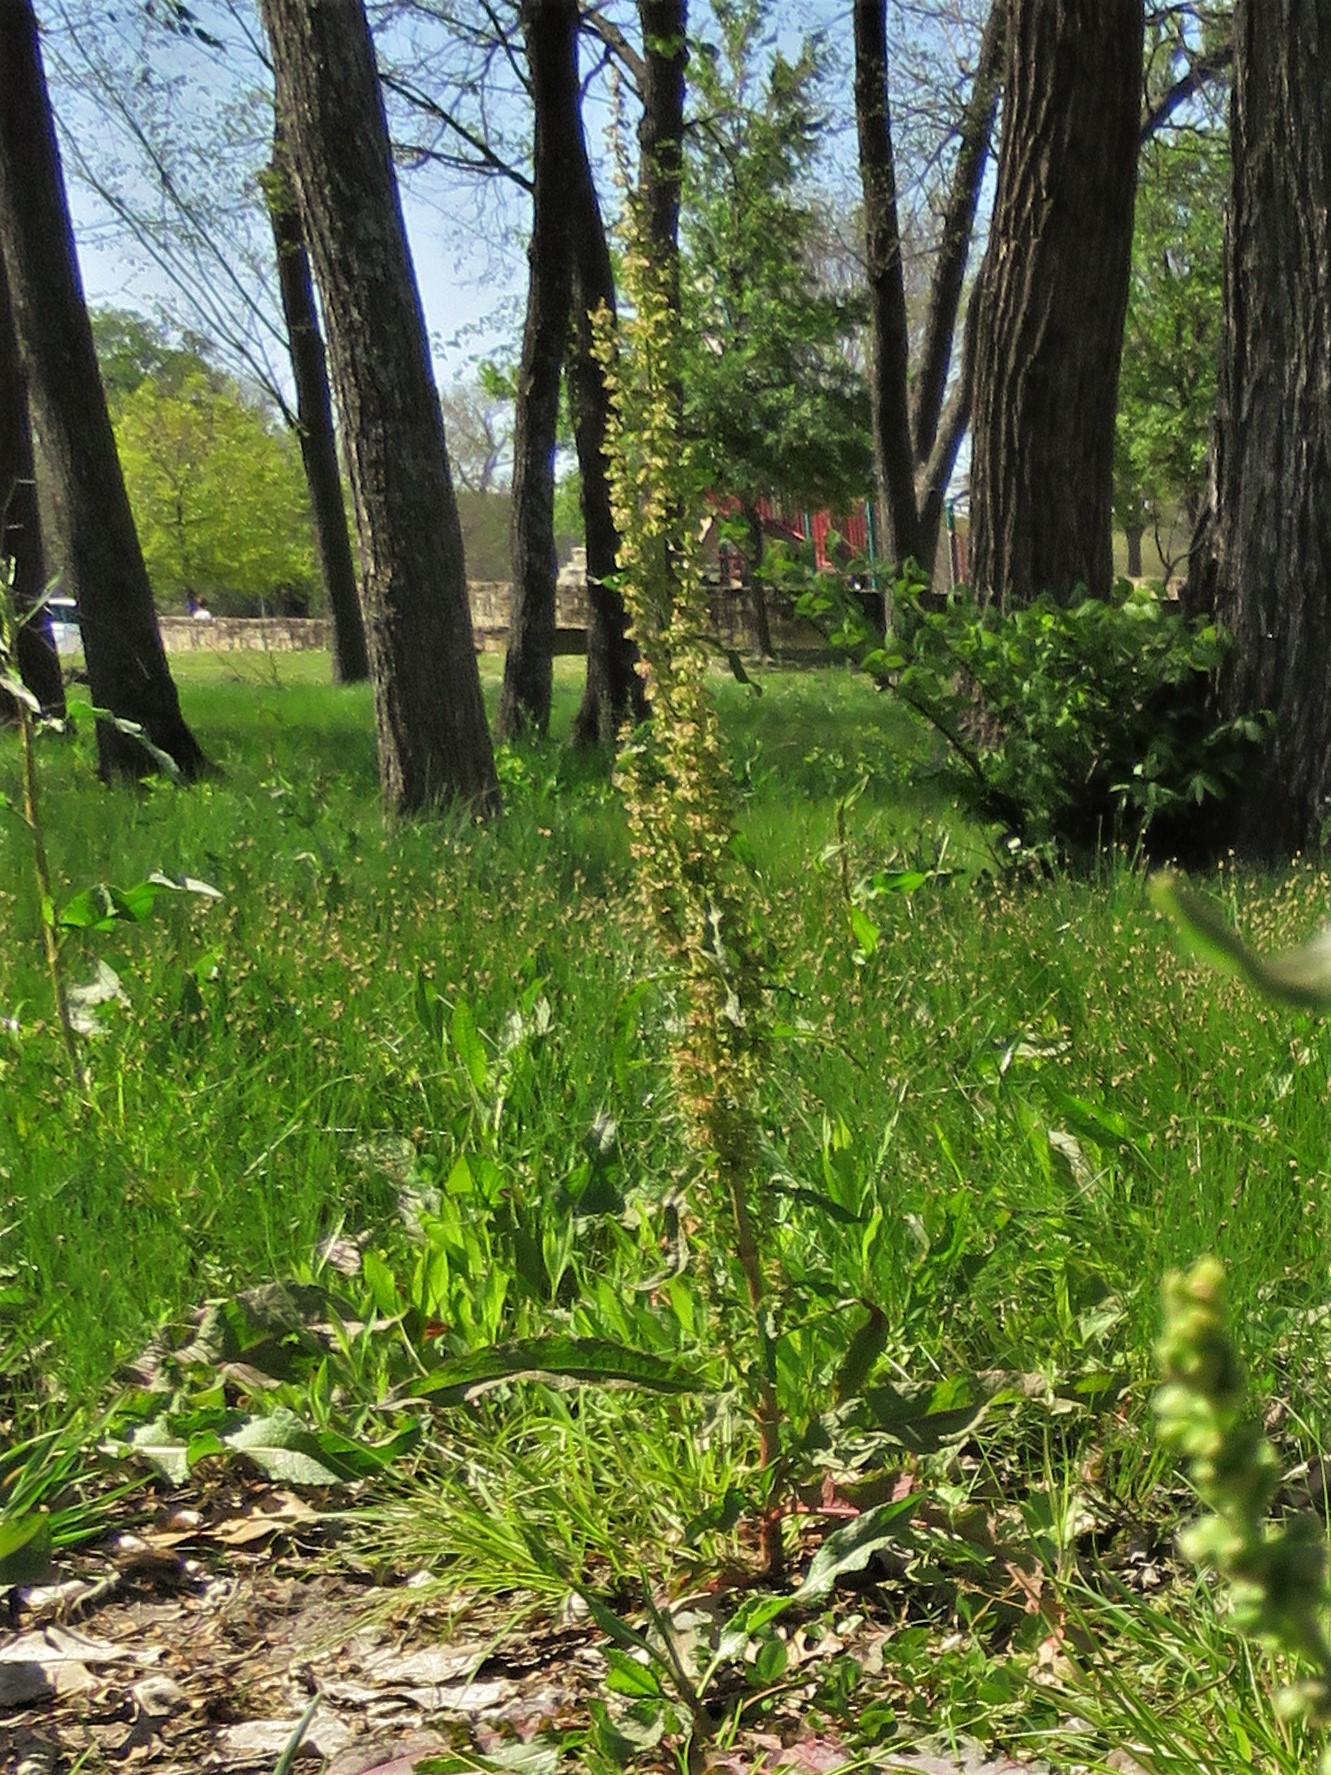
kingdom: Plantae
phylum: Tracheophyta
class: Magnoliopsida
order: Caryophyllales
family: Polygonaceae
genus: Rumex
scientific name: Rumex crispus
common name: Curled dock
